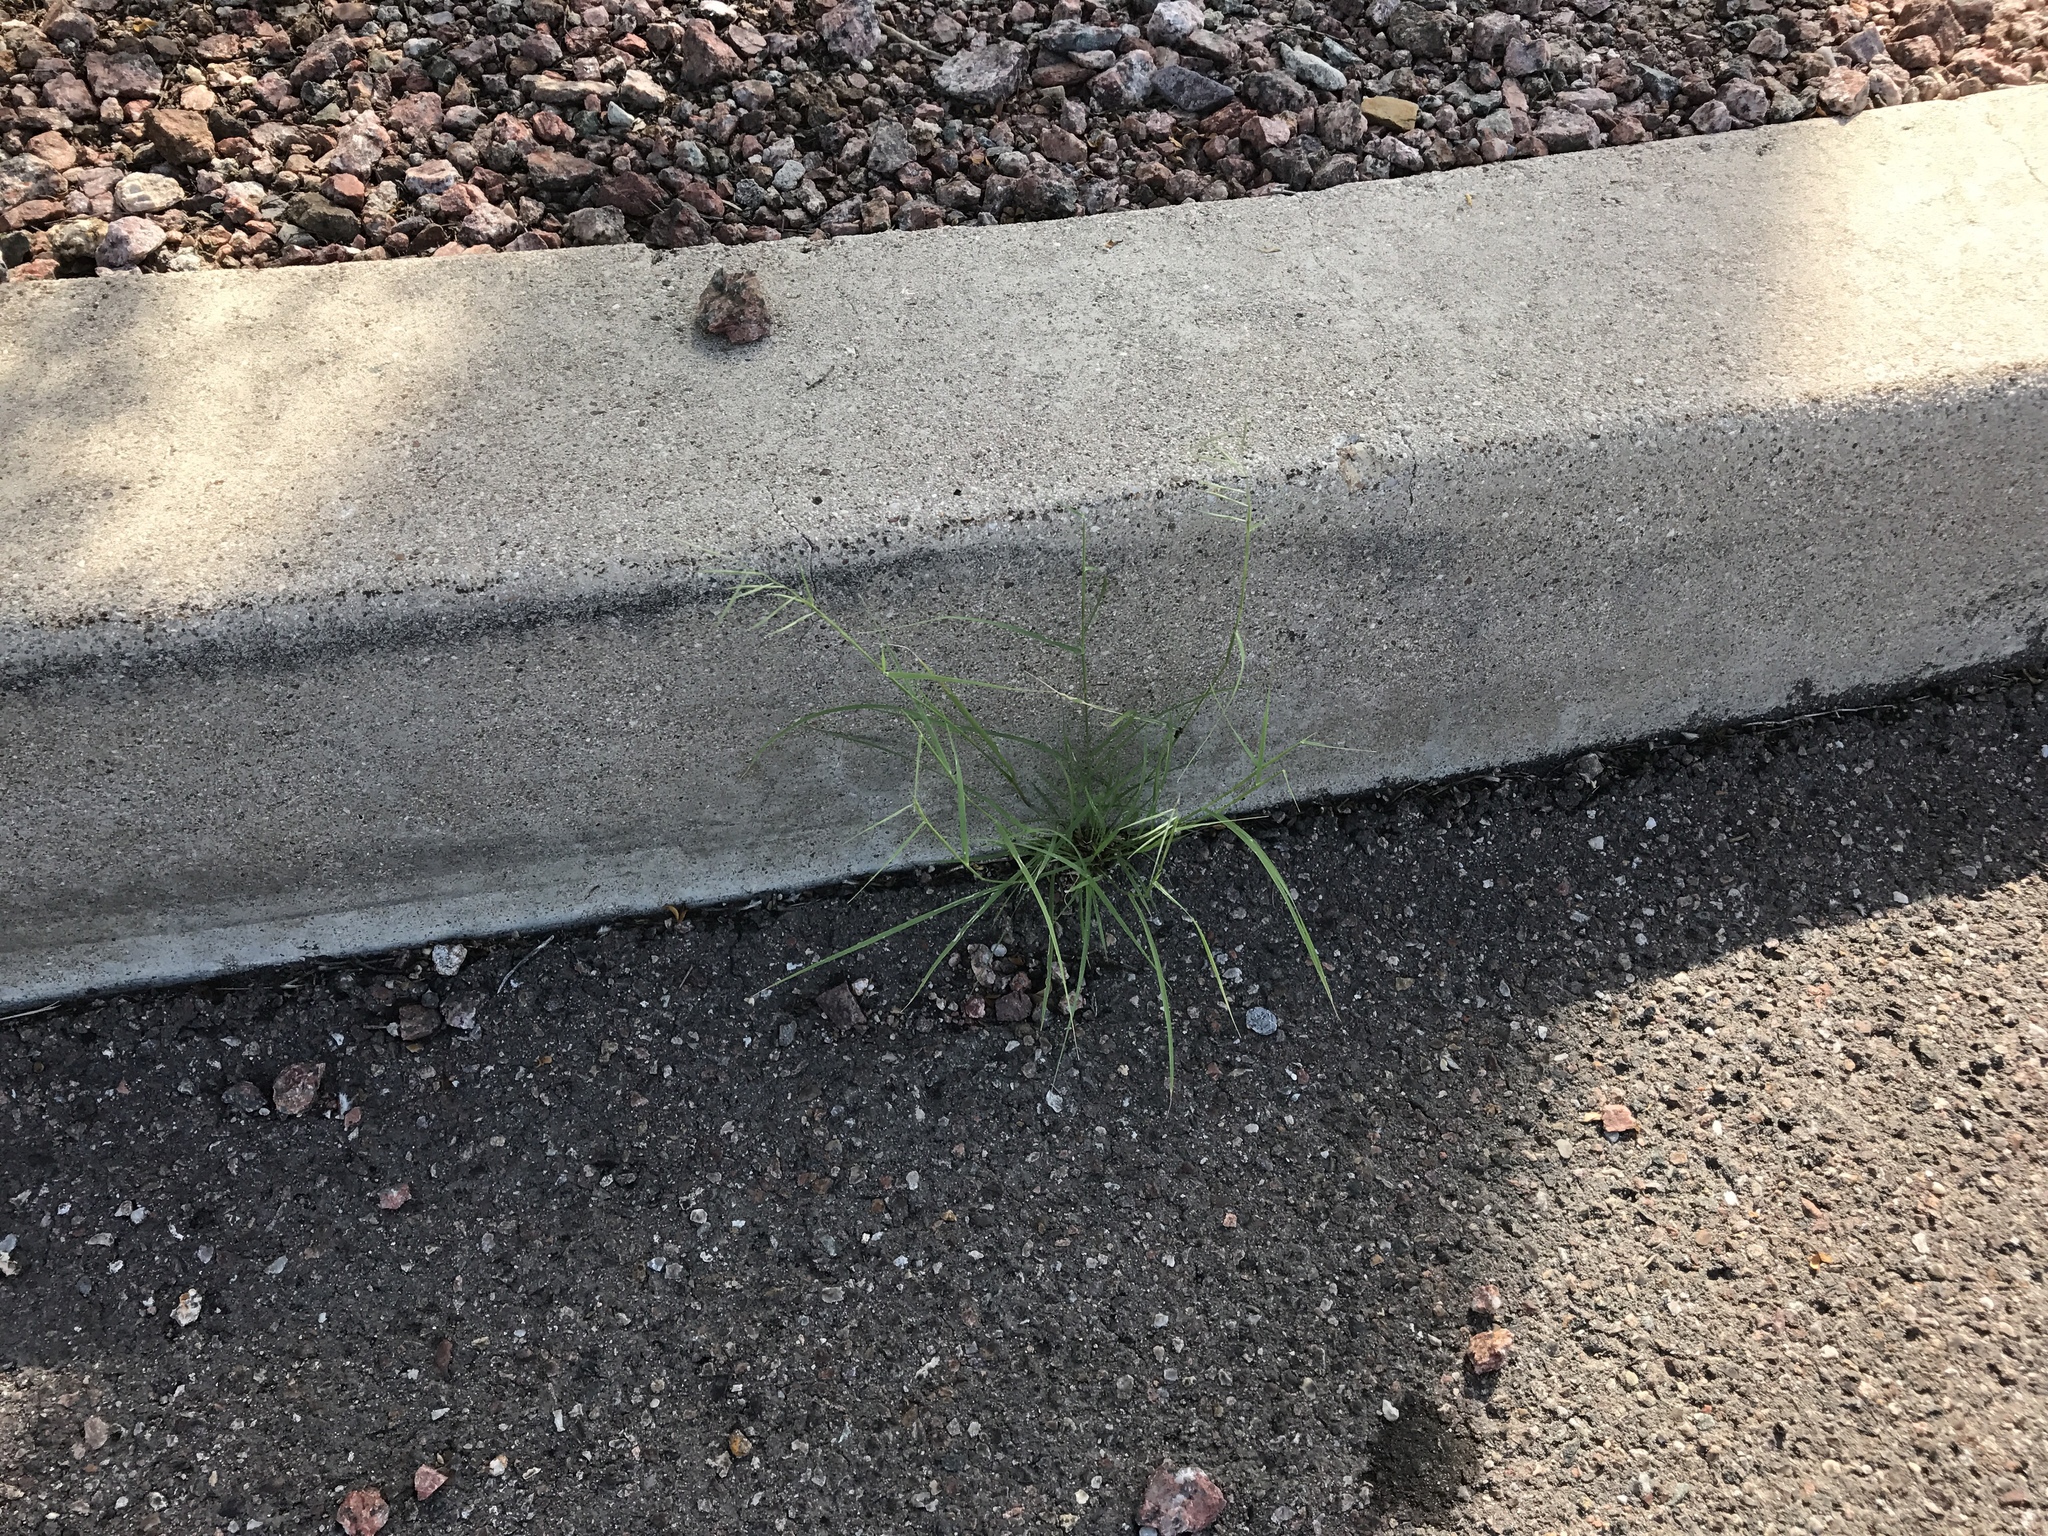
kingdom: Plantae
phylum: Tracheophyta
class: Liliopsida
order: Poales
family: Poaceae
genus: Bouteloua
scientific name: Bouteloua aristidoides
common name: Needle grama
